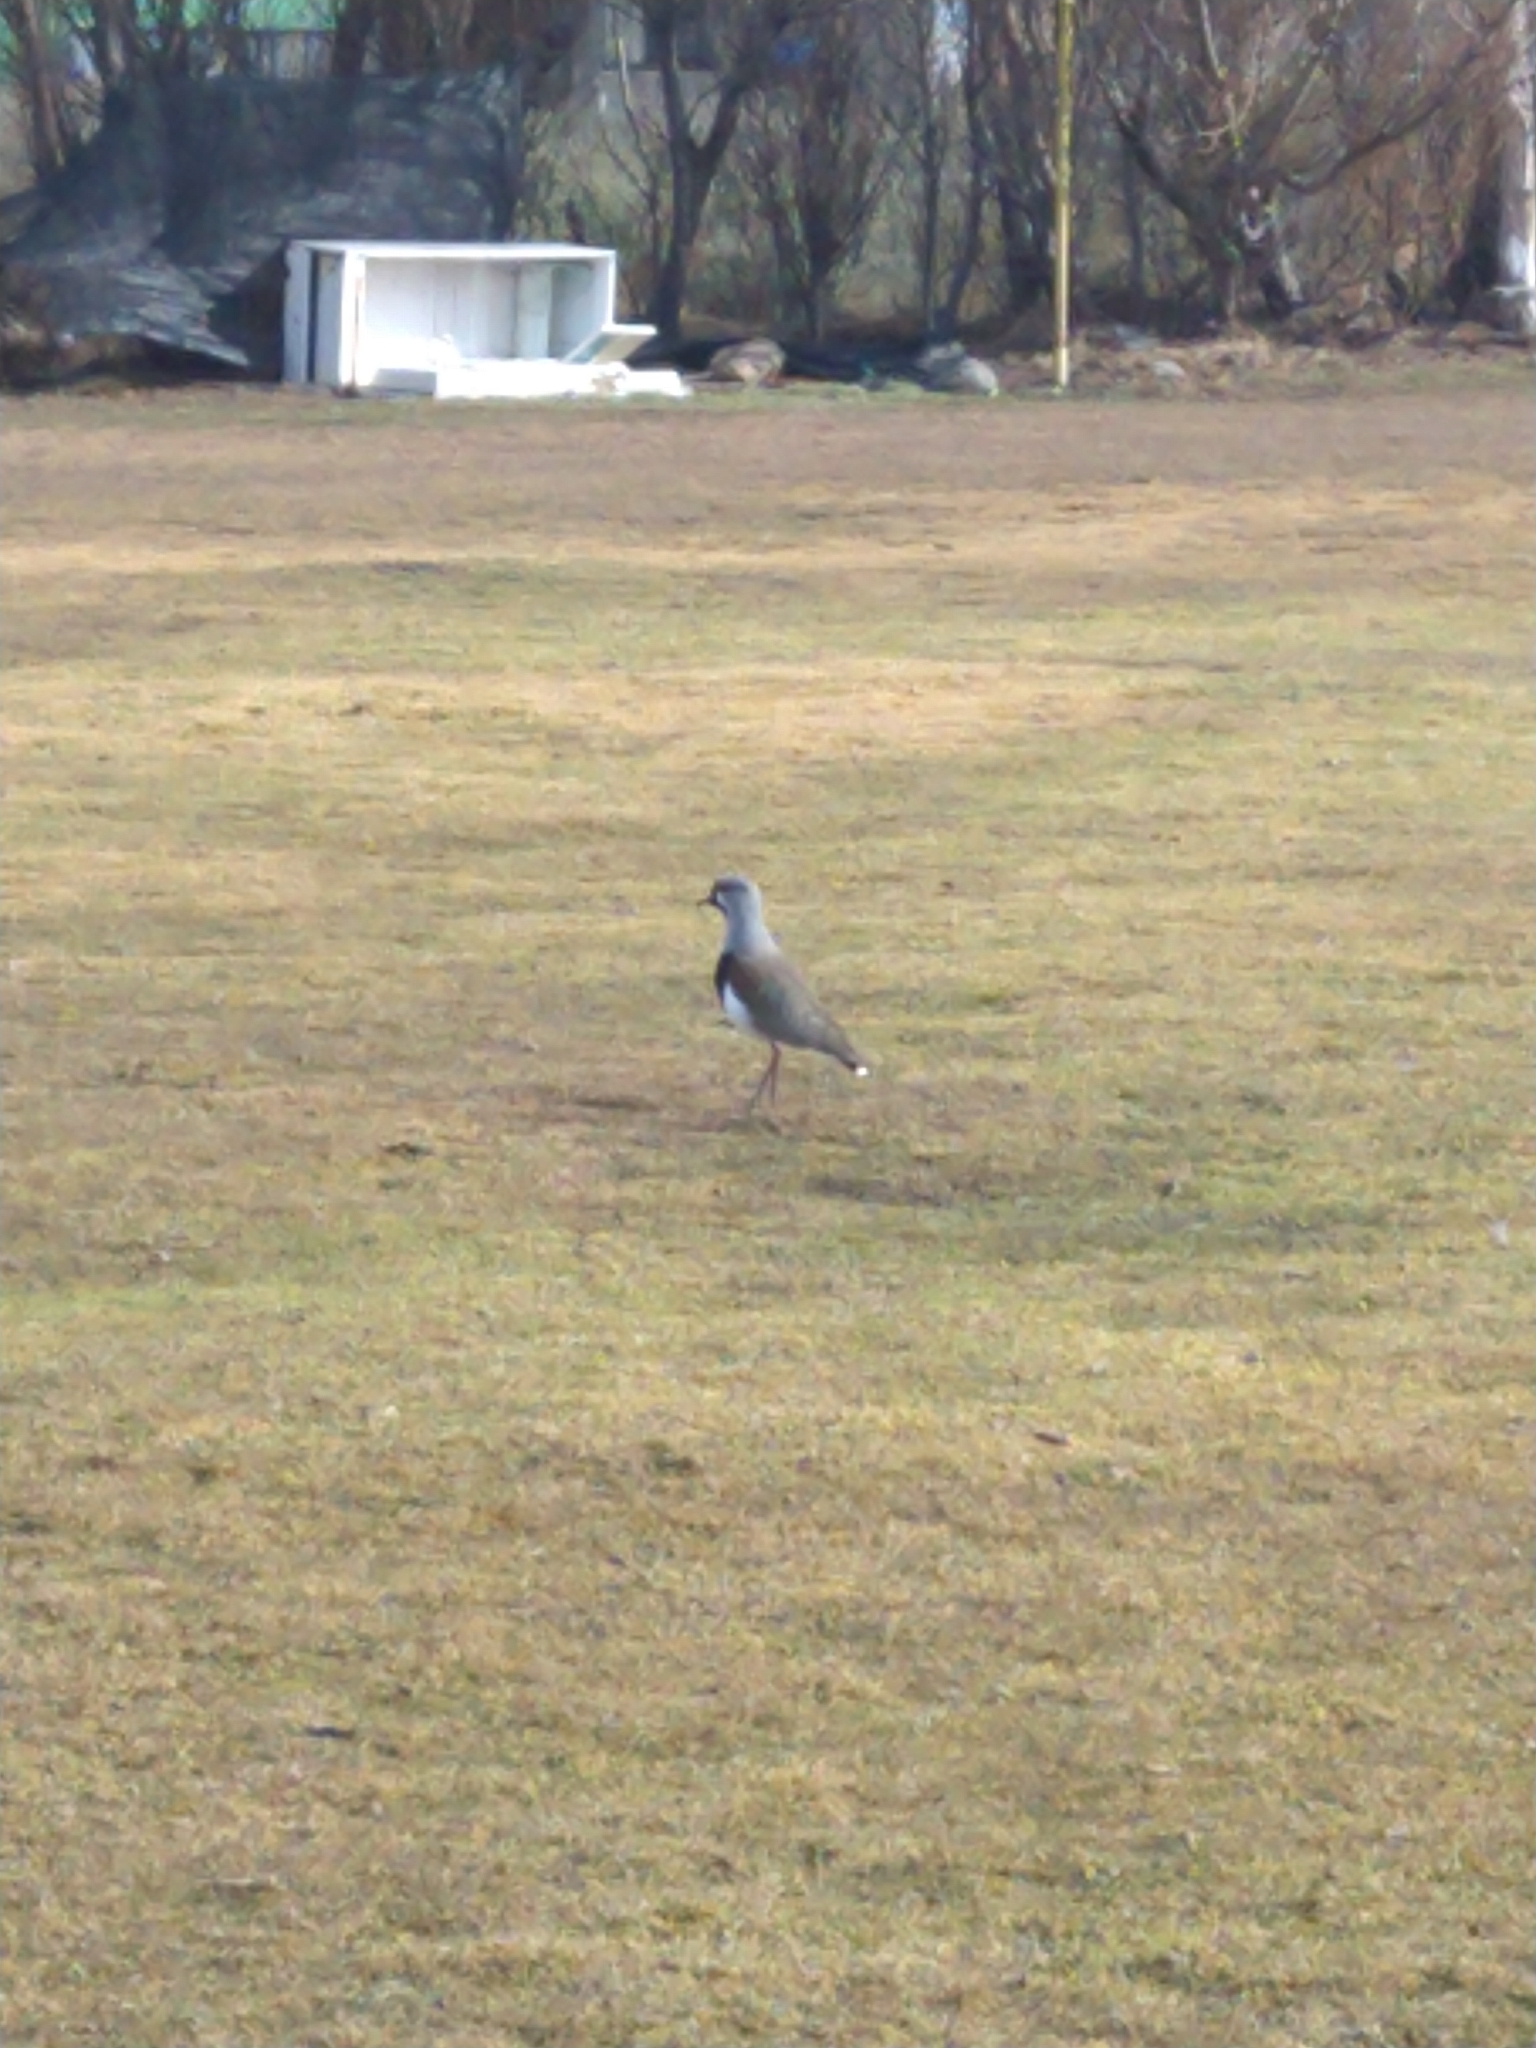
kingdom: Animalia
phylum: Chordata
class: Aves
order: Charadriiformes
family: Charadriidae
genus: Vanellus
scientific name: Vanellus chilensis
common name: Southern lapwing
